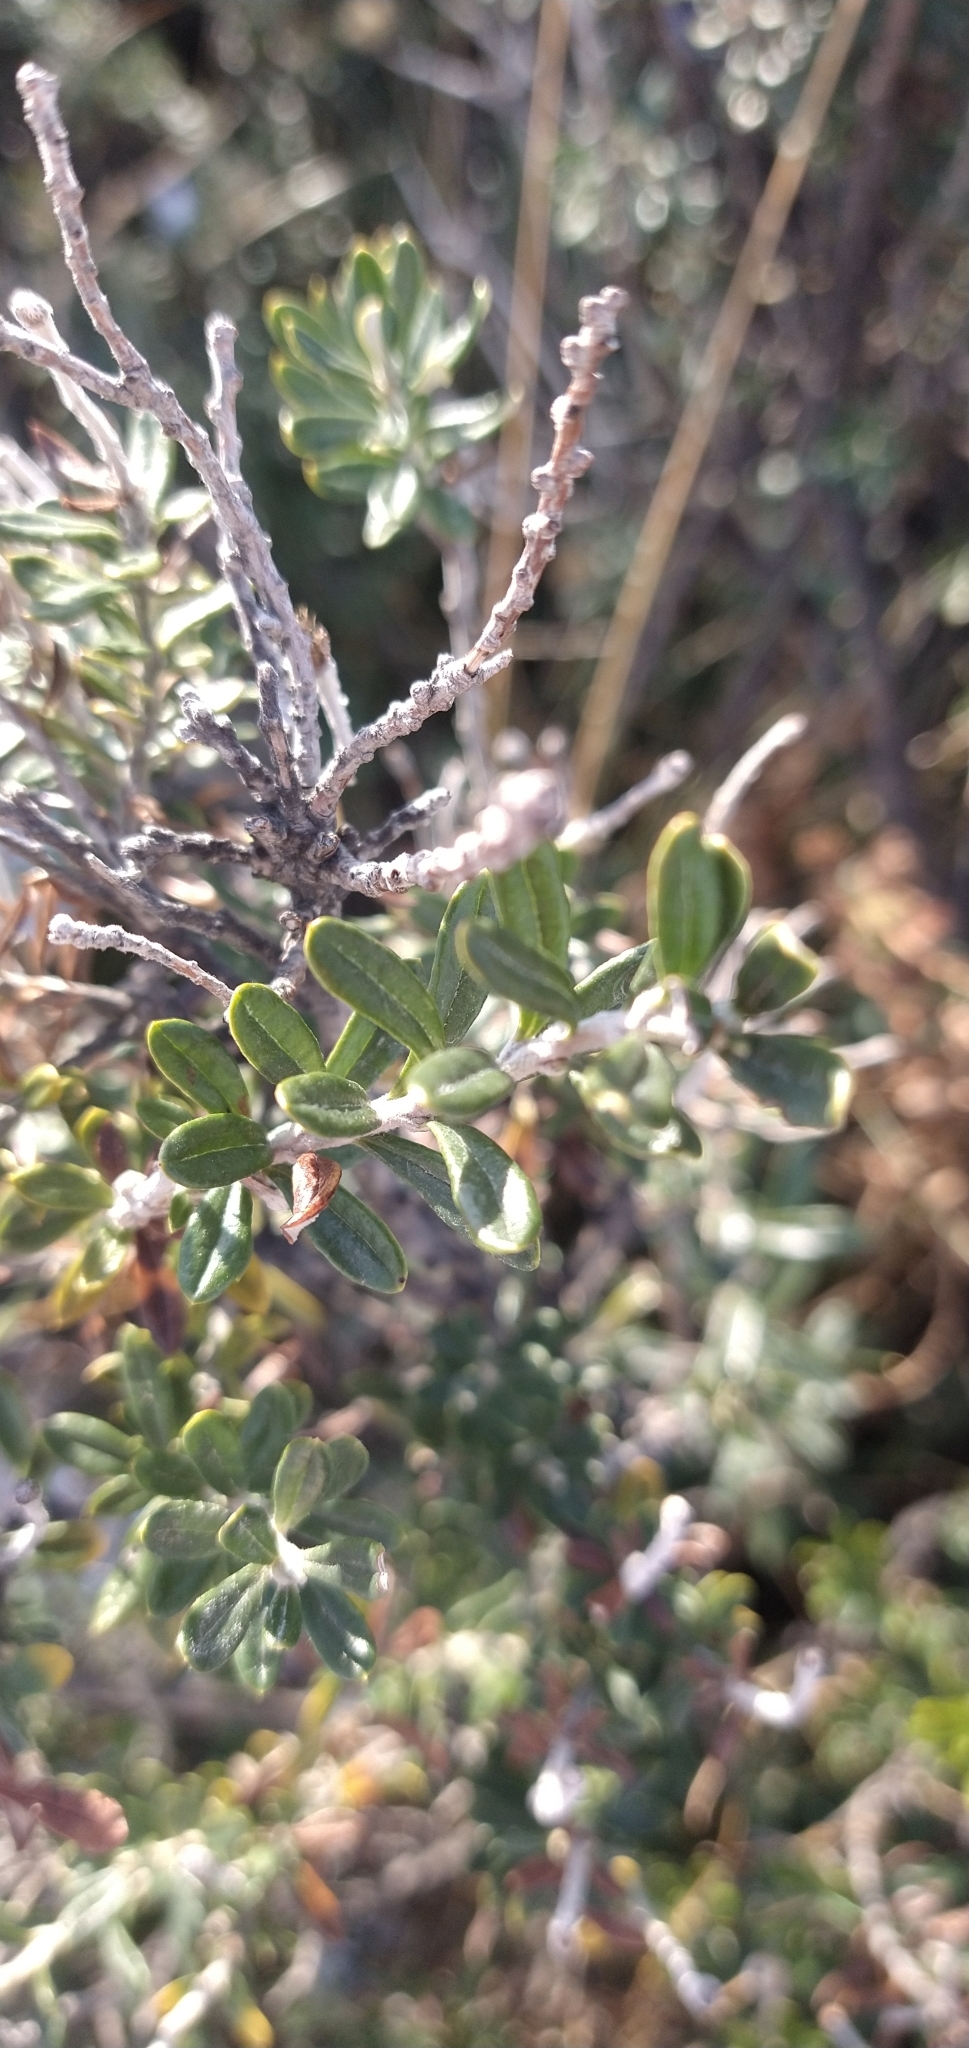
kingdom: Plantae
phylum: Tracheophyta
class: Magnoliopsida
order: Asterales
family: Asteraceae
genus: Chiliotrichum
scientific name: Chiliotrichum diffusum
